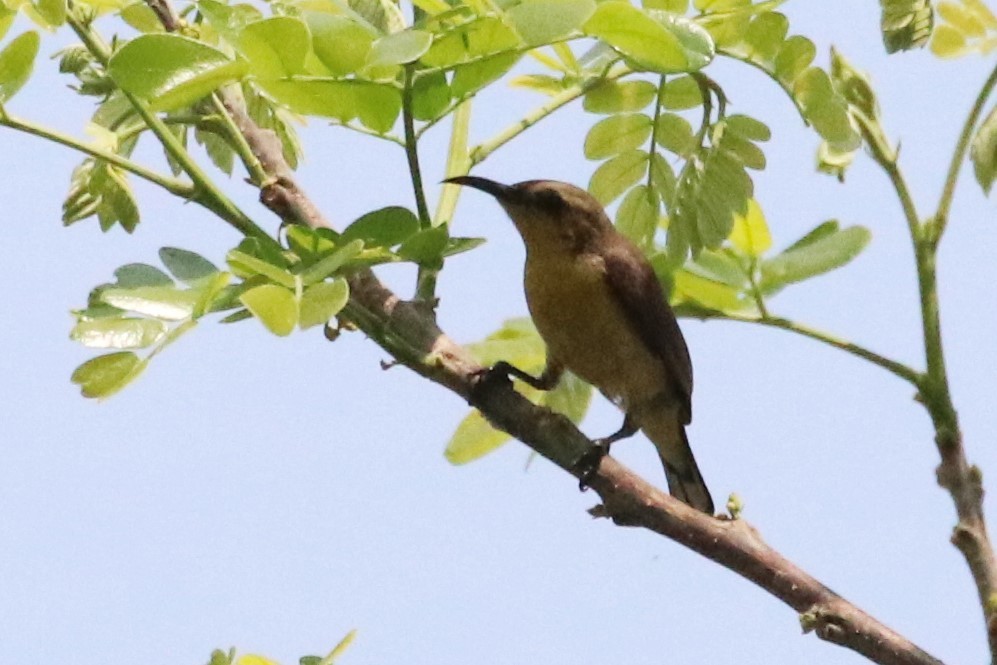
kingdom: Animalia
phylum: Chordata
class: Aves
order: Passeriformes
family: Nectariniidae
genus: Cinnyris
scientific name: Cinnyris asiaticus
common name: Purple sunbird
